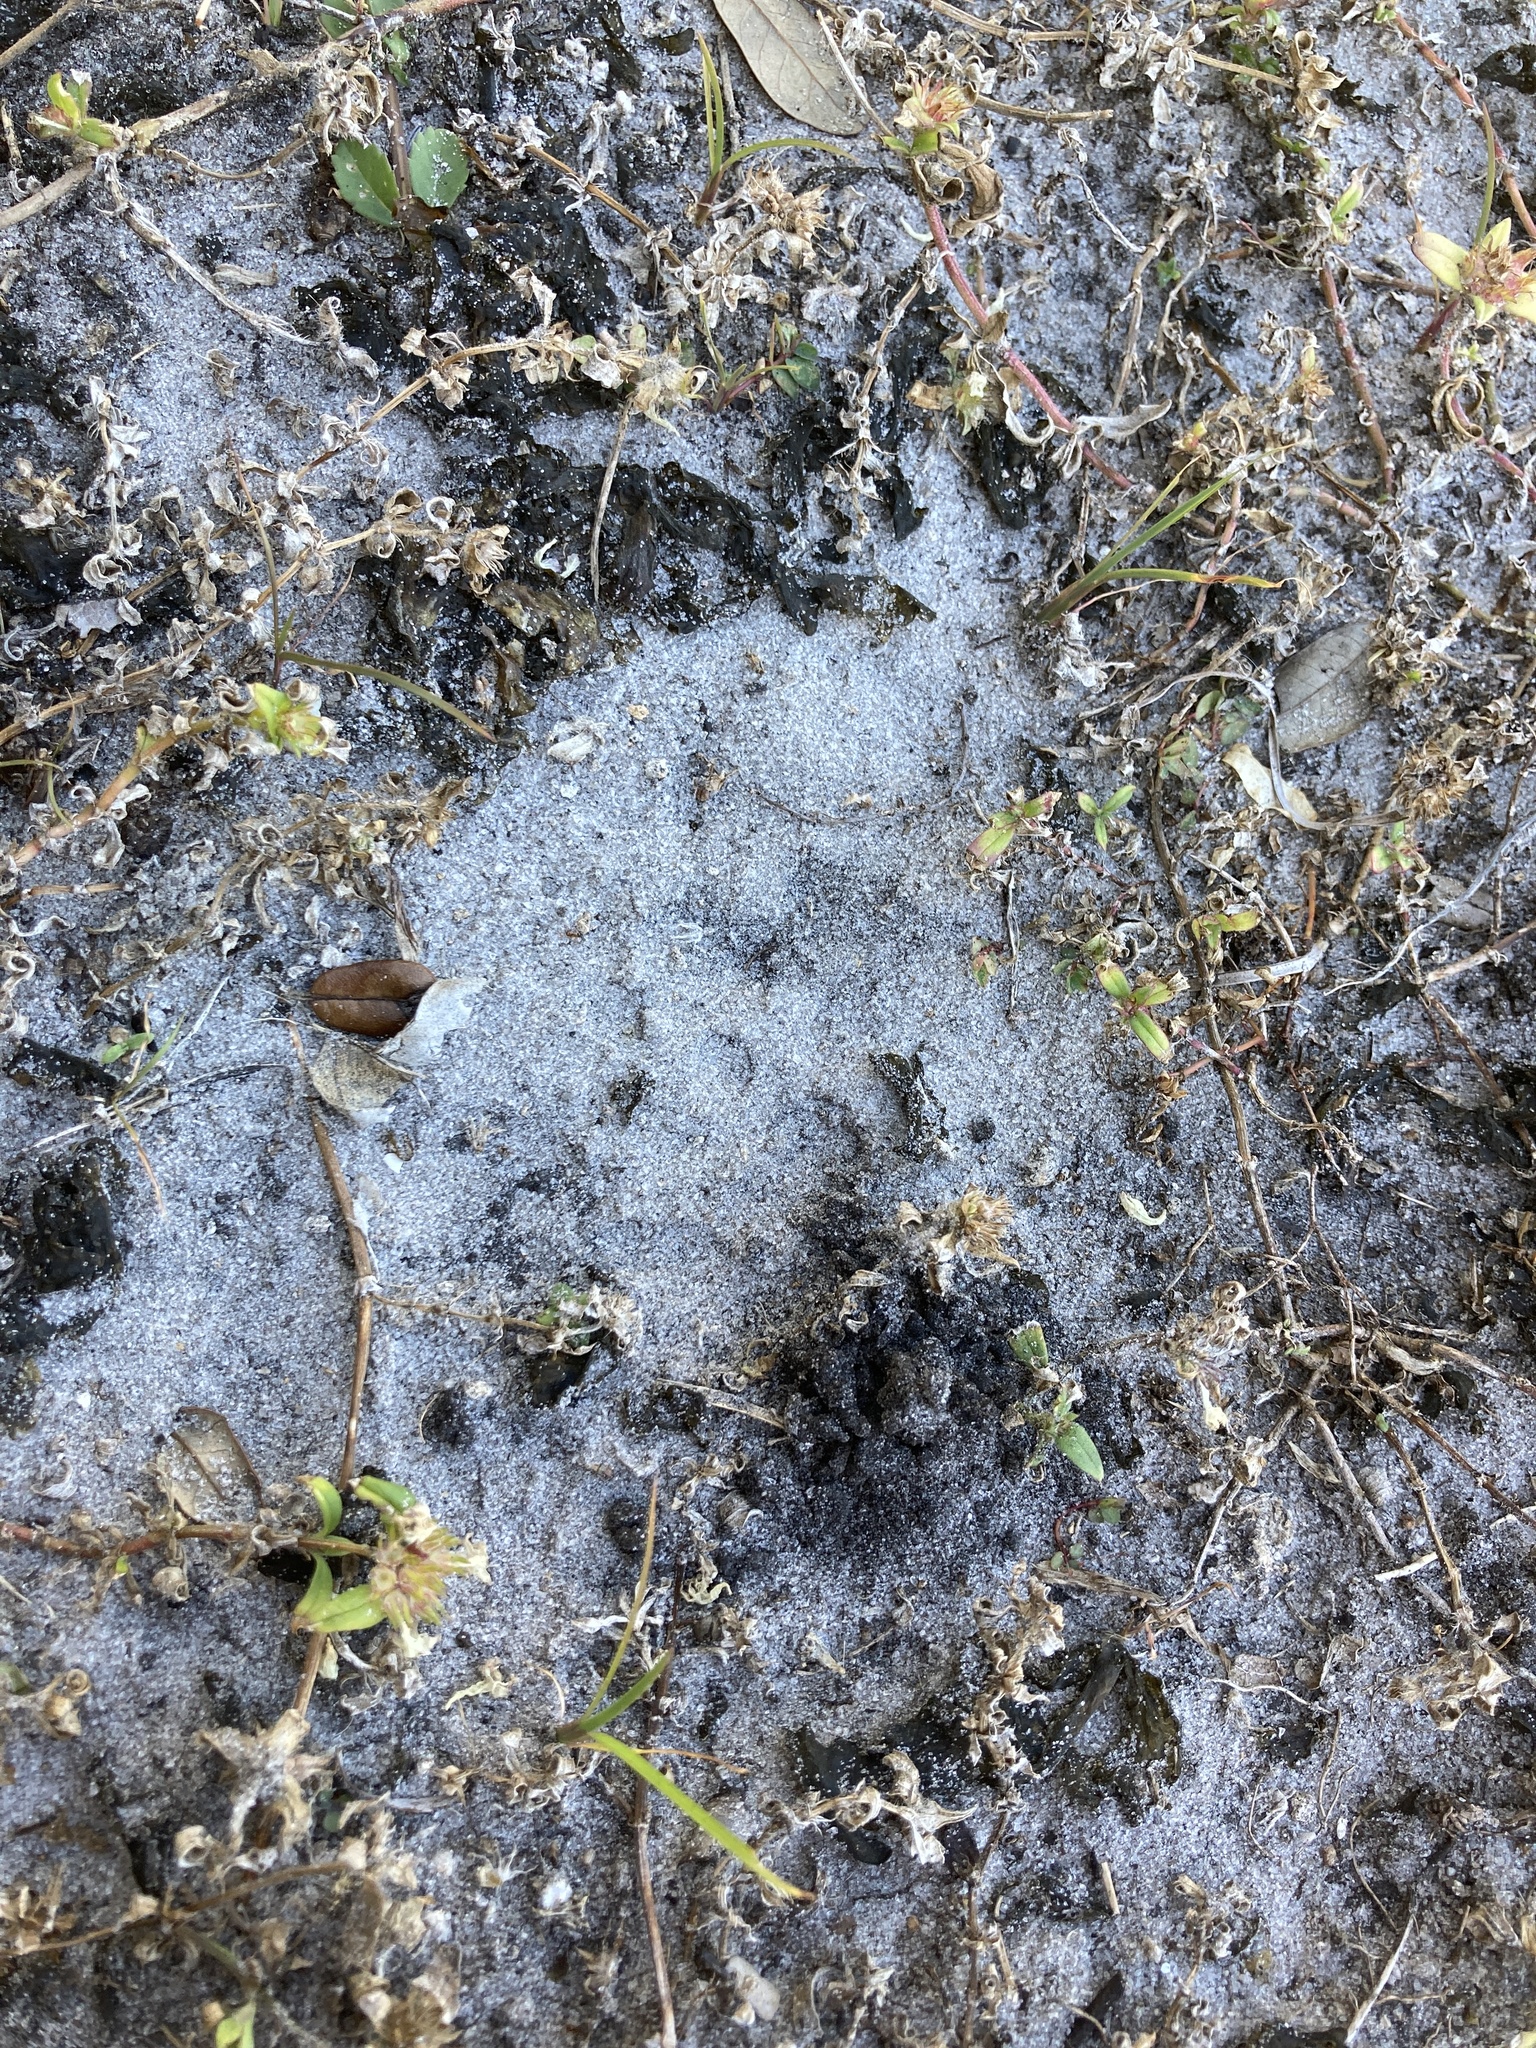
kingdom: Bacteria
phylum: Cyanobacteria
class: Cyanobacteriia
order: Cyanobacteriales
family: Nostocaceae
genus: Nostoc
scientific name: Nostoc commune
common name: Star jelly
